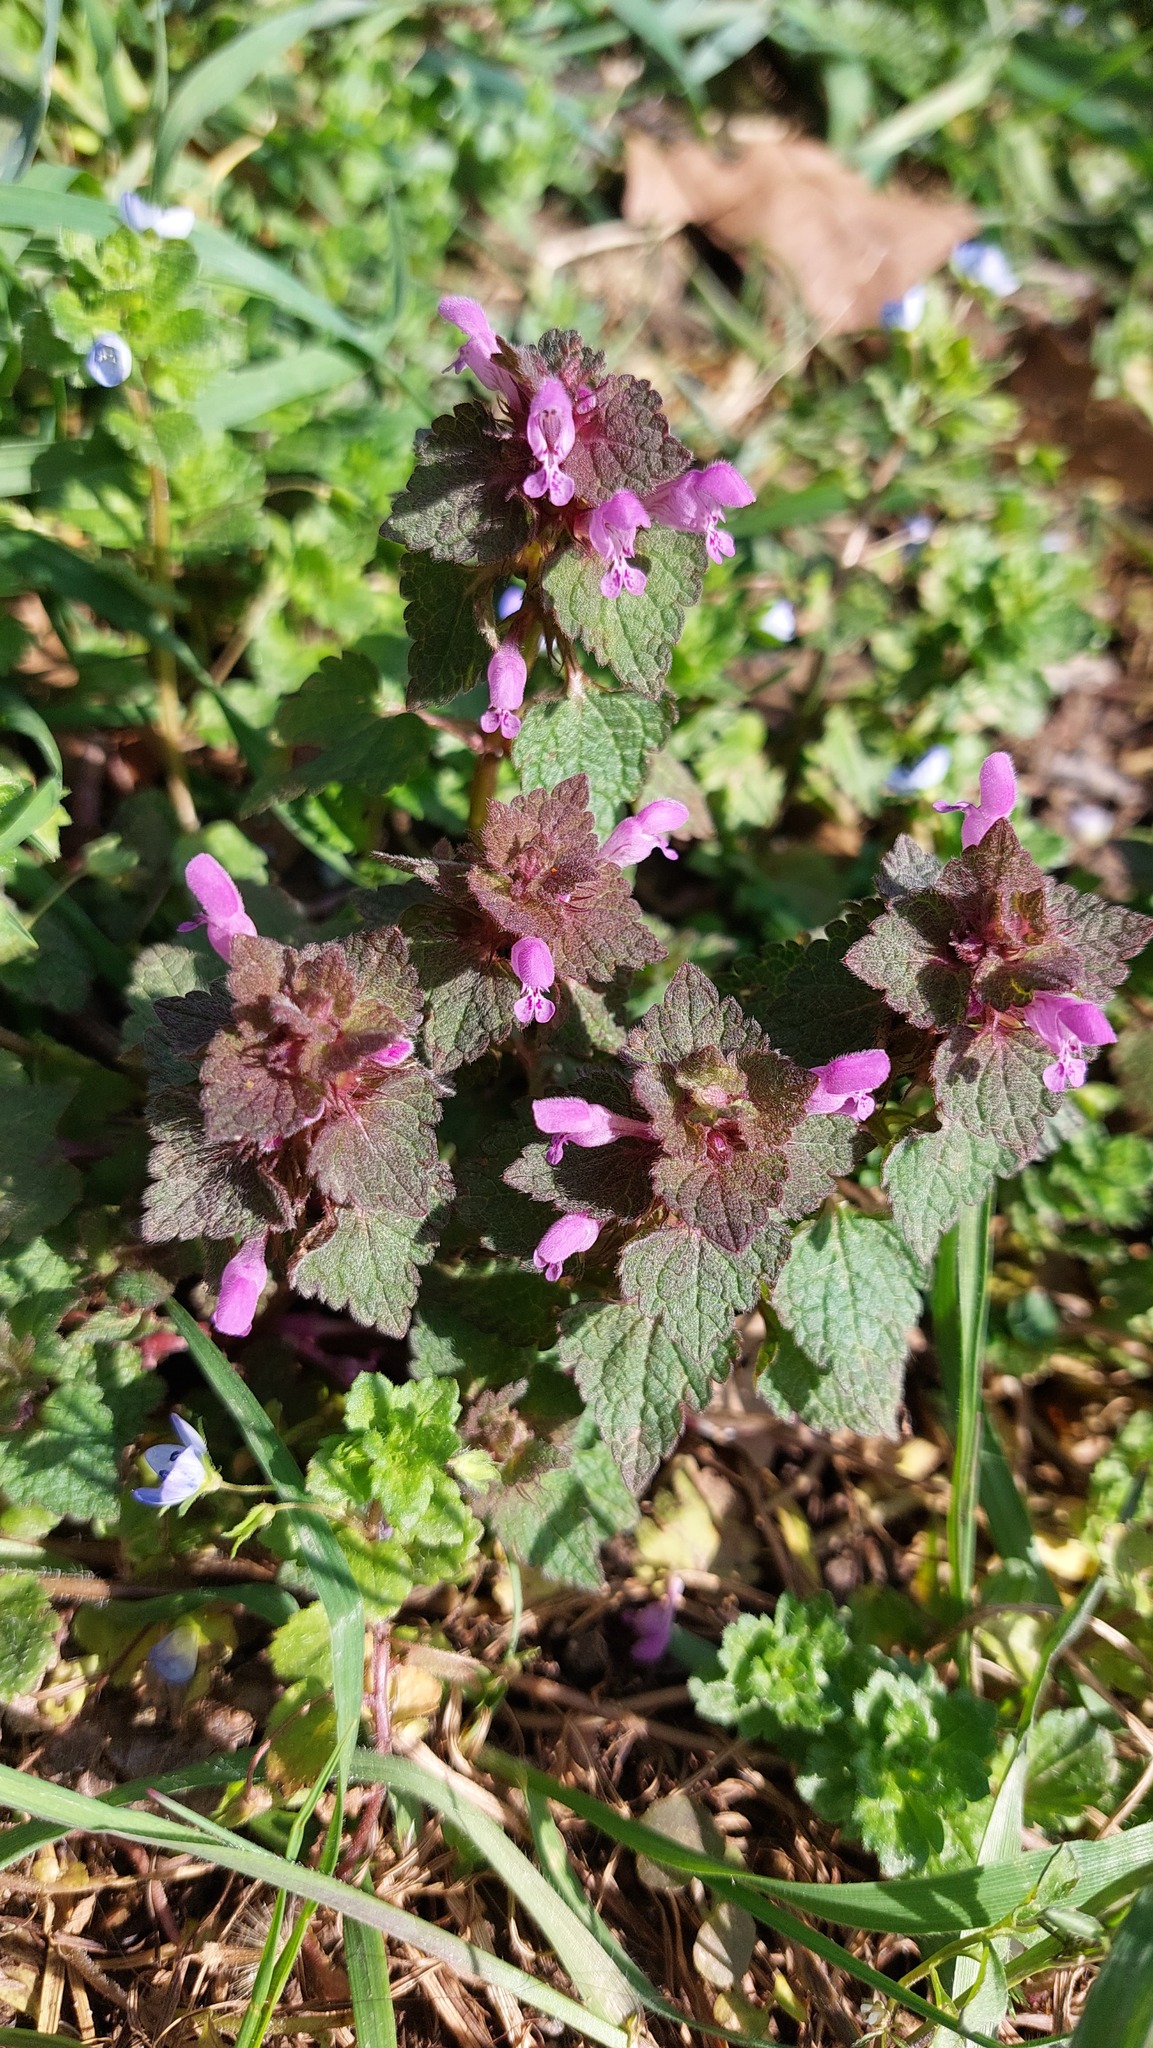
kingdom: Plantae
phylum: Tracheophyta
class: Magnoliopsida
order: Lamiales
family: Lamiaceae
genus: Lamium
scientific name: Lamium purpureum
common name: Red dead-nettle
